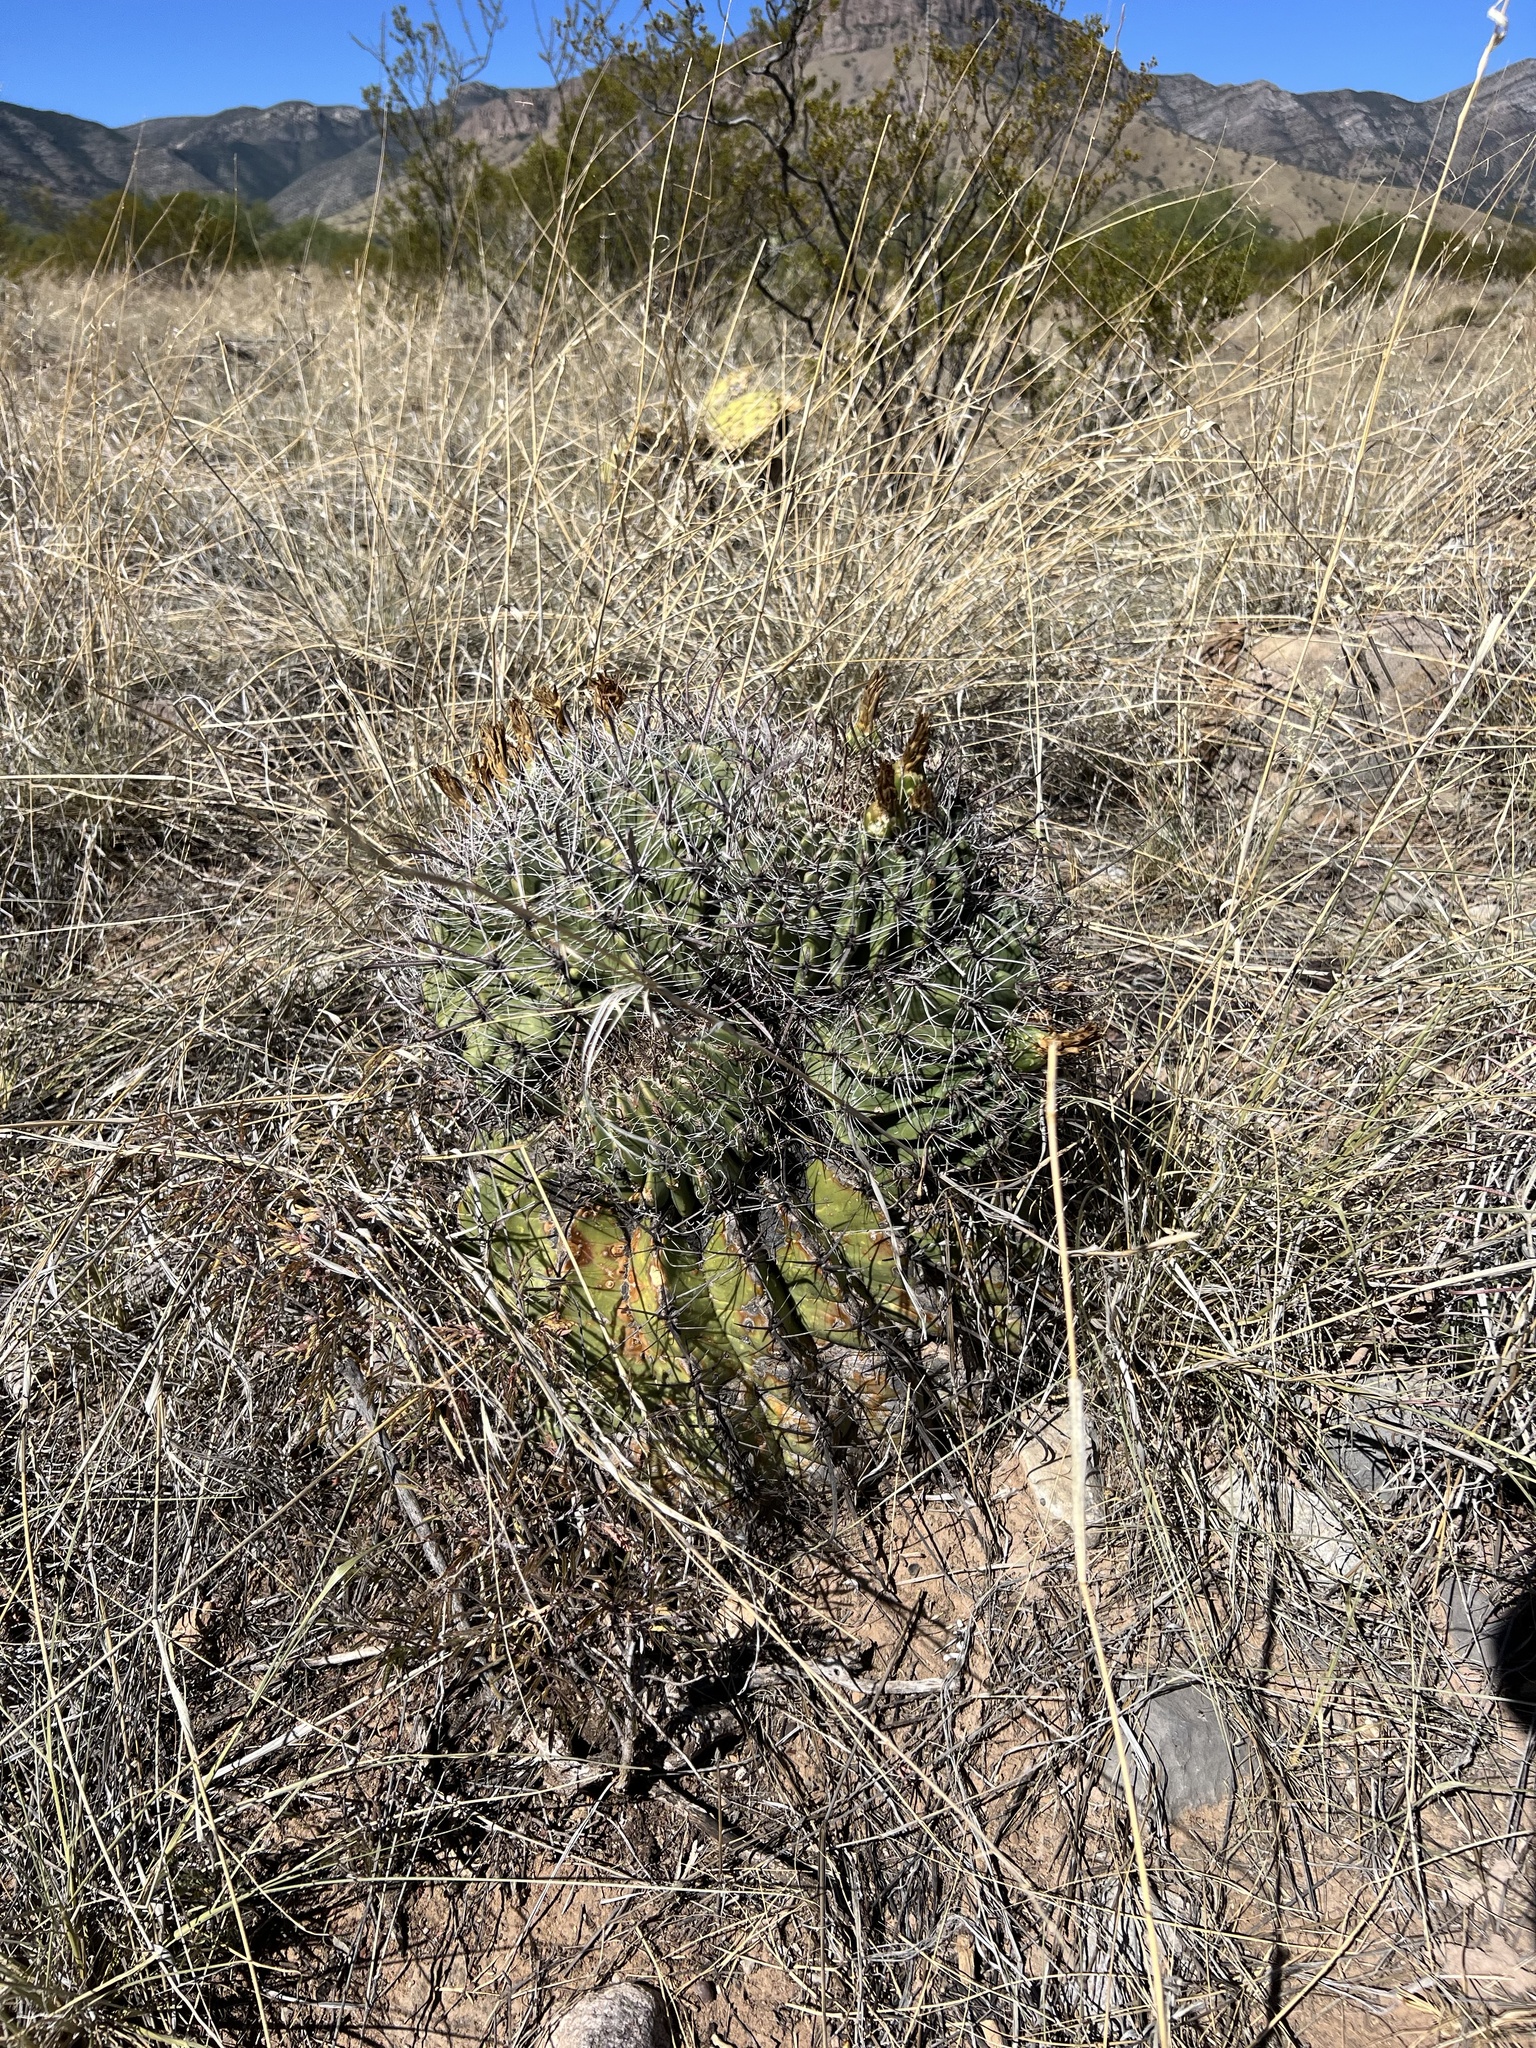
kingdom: Plantae
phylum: Tracheophyta
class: Magnoliopsida
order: Caryophyllales
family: Cactaceae
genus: Ferocactus
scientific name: Ferocactus wislizeni
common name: Candy barrel cactus
